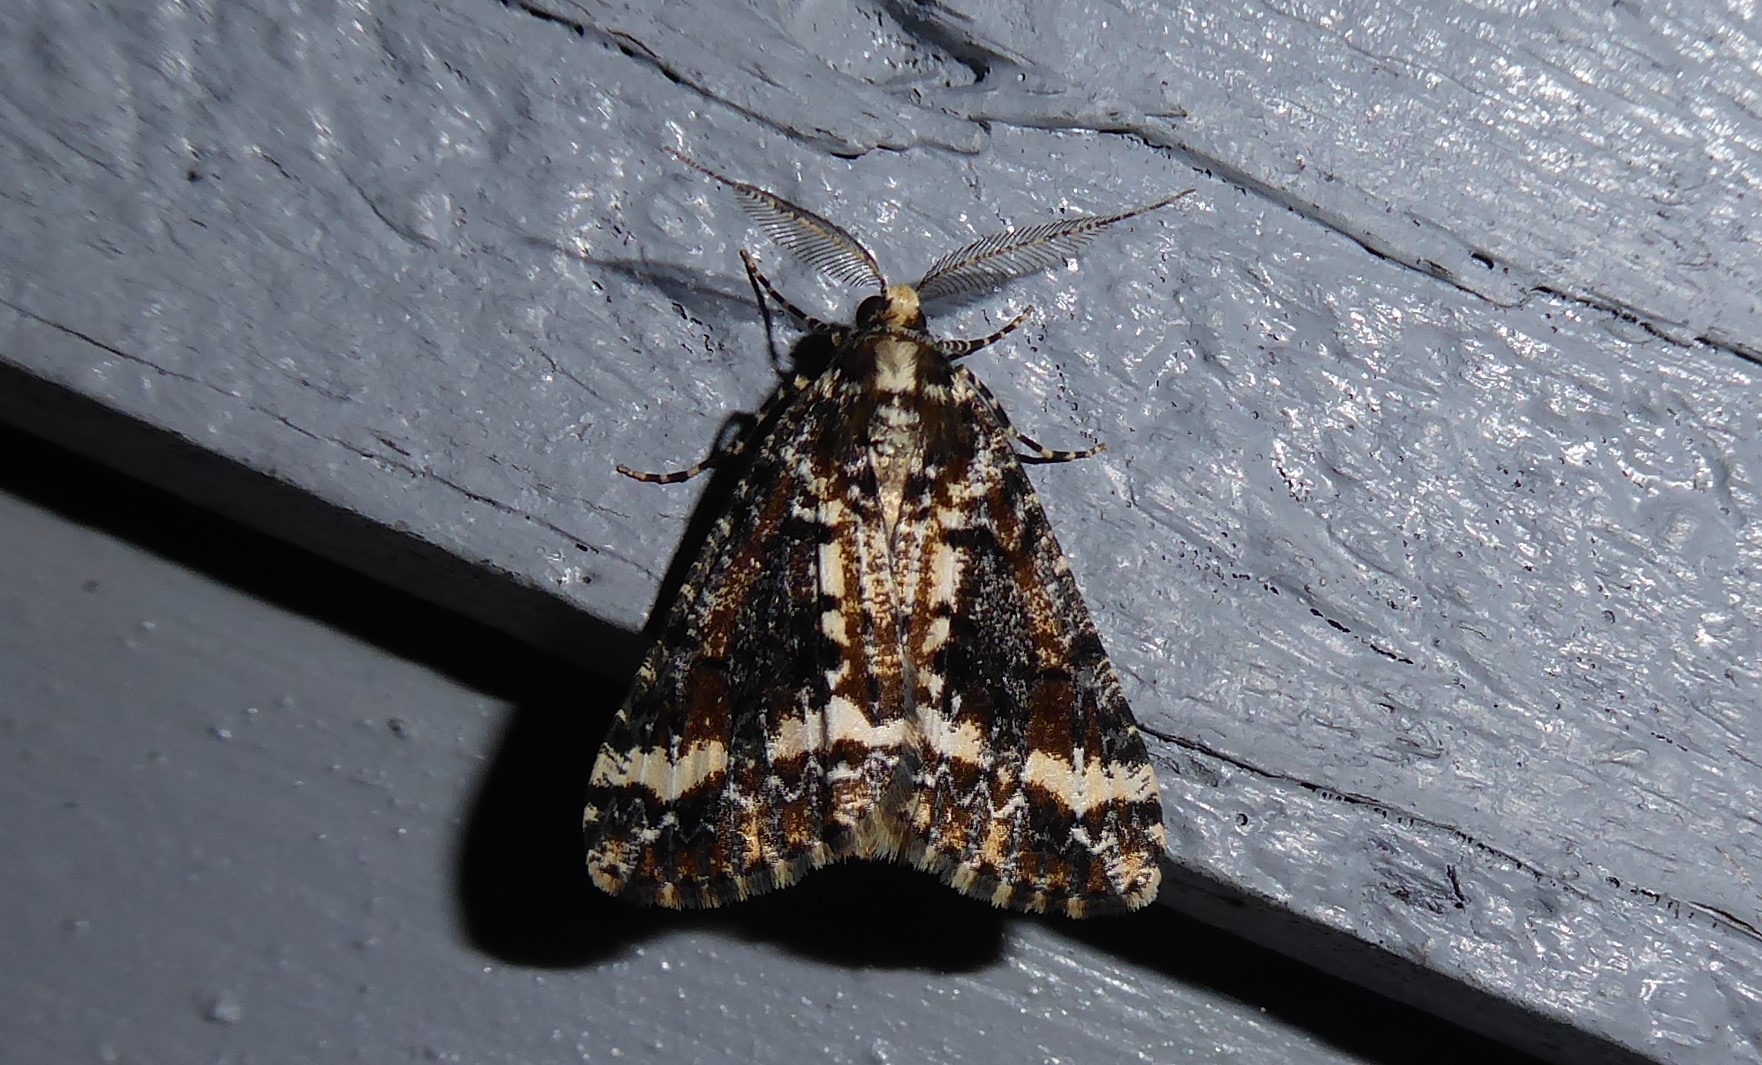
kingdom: Animalia
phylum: Arthropoda
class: Insecta
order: Lepidoptera
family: Geometridae
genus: Pseudocoremia
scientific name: Pseudocoremia leucelaea
